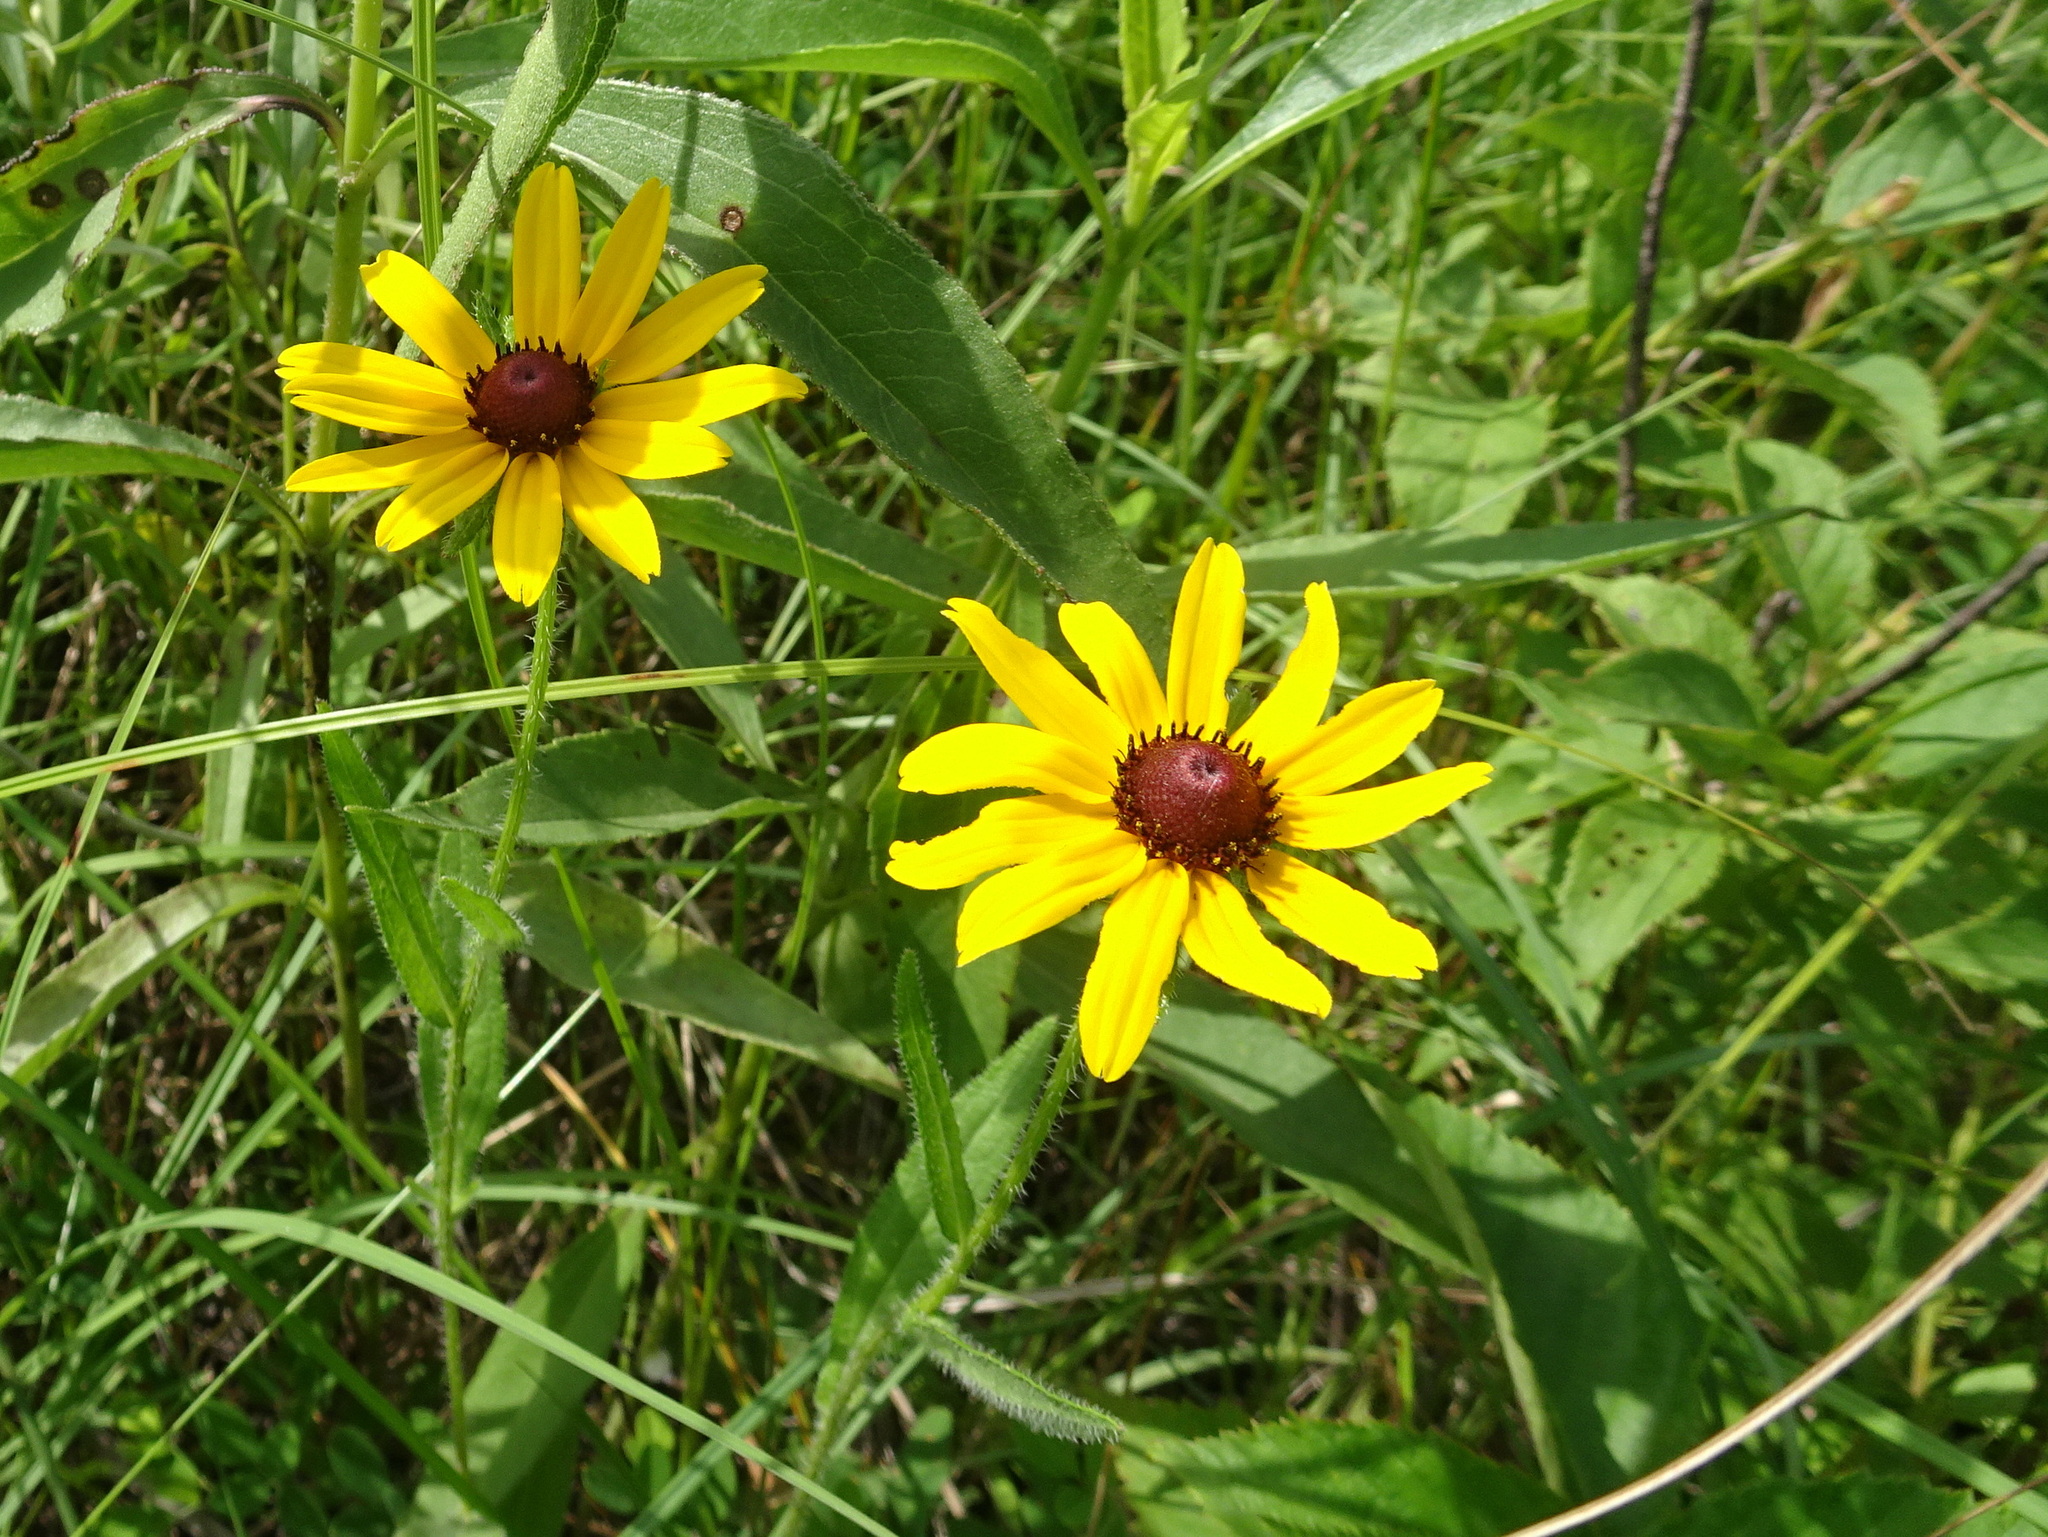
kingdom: Plantae
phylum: Tracheophyta
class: Magnoliopsida
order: Asterales
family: Asteraceae
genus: Rudbeckia
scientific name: Rudbeckia hirta
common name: Black-eyed-susan
